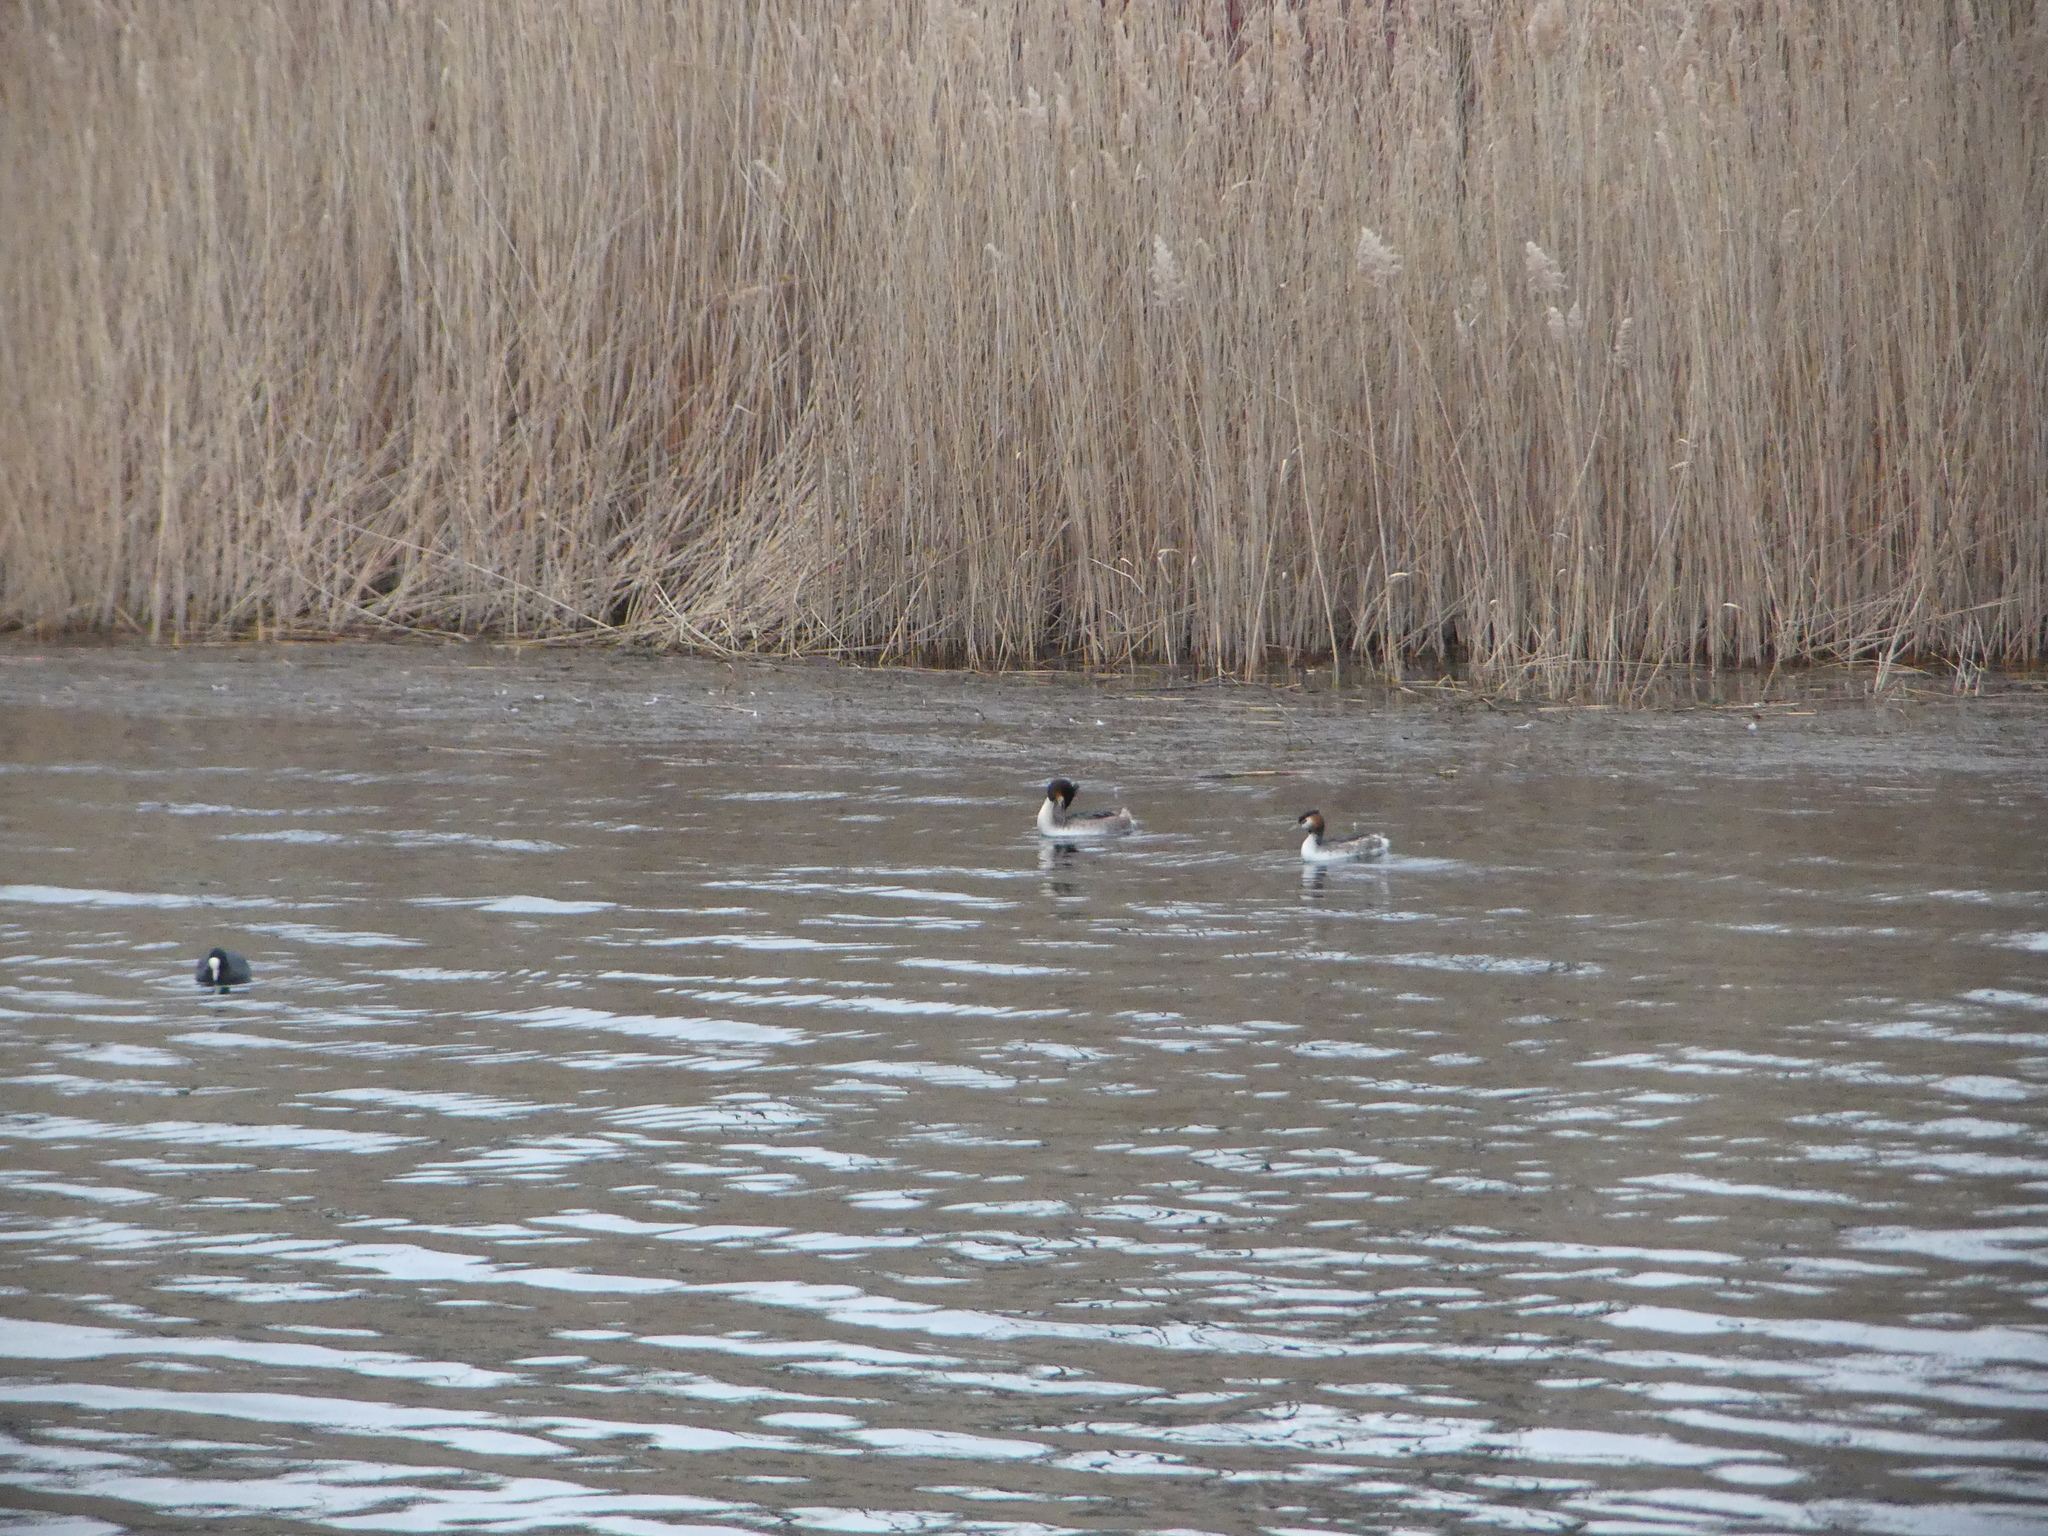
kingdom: Animalia
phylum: Chordata
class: Aves
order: Podicipediformes
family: Podicipedidae
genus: Podiceps
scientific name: Podiceps cristatus
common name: Great crested grebe
